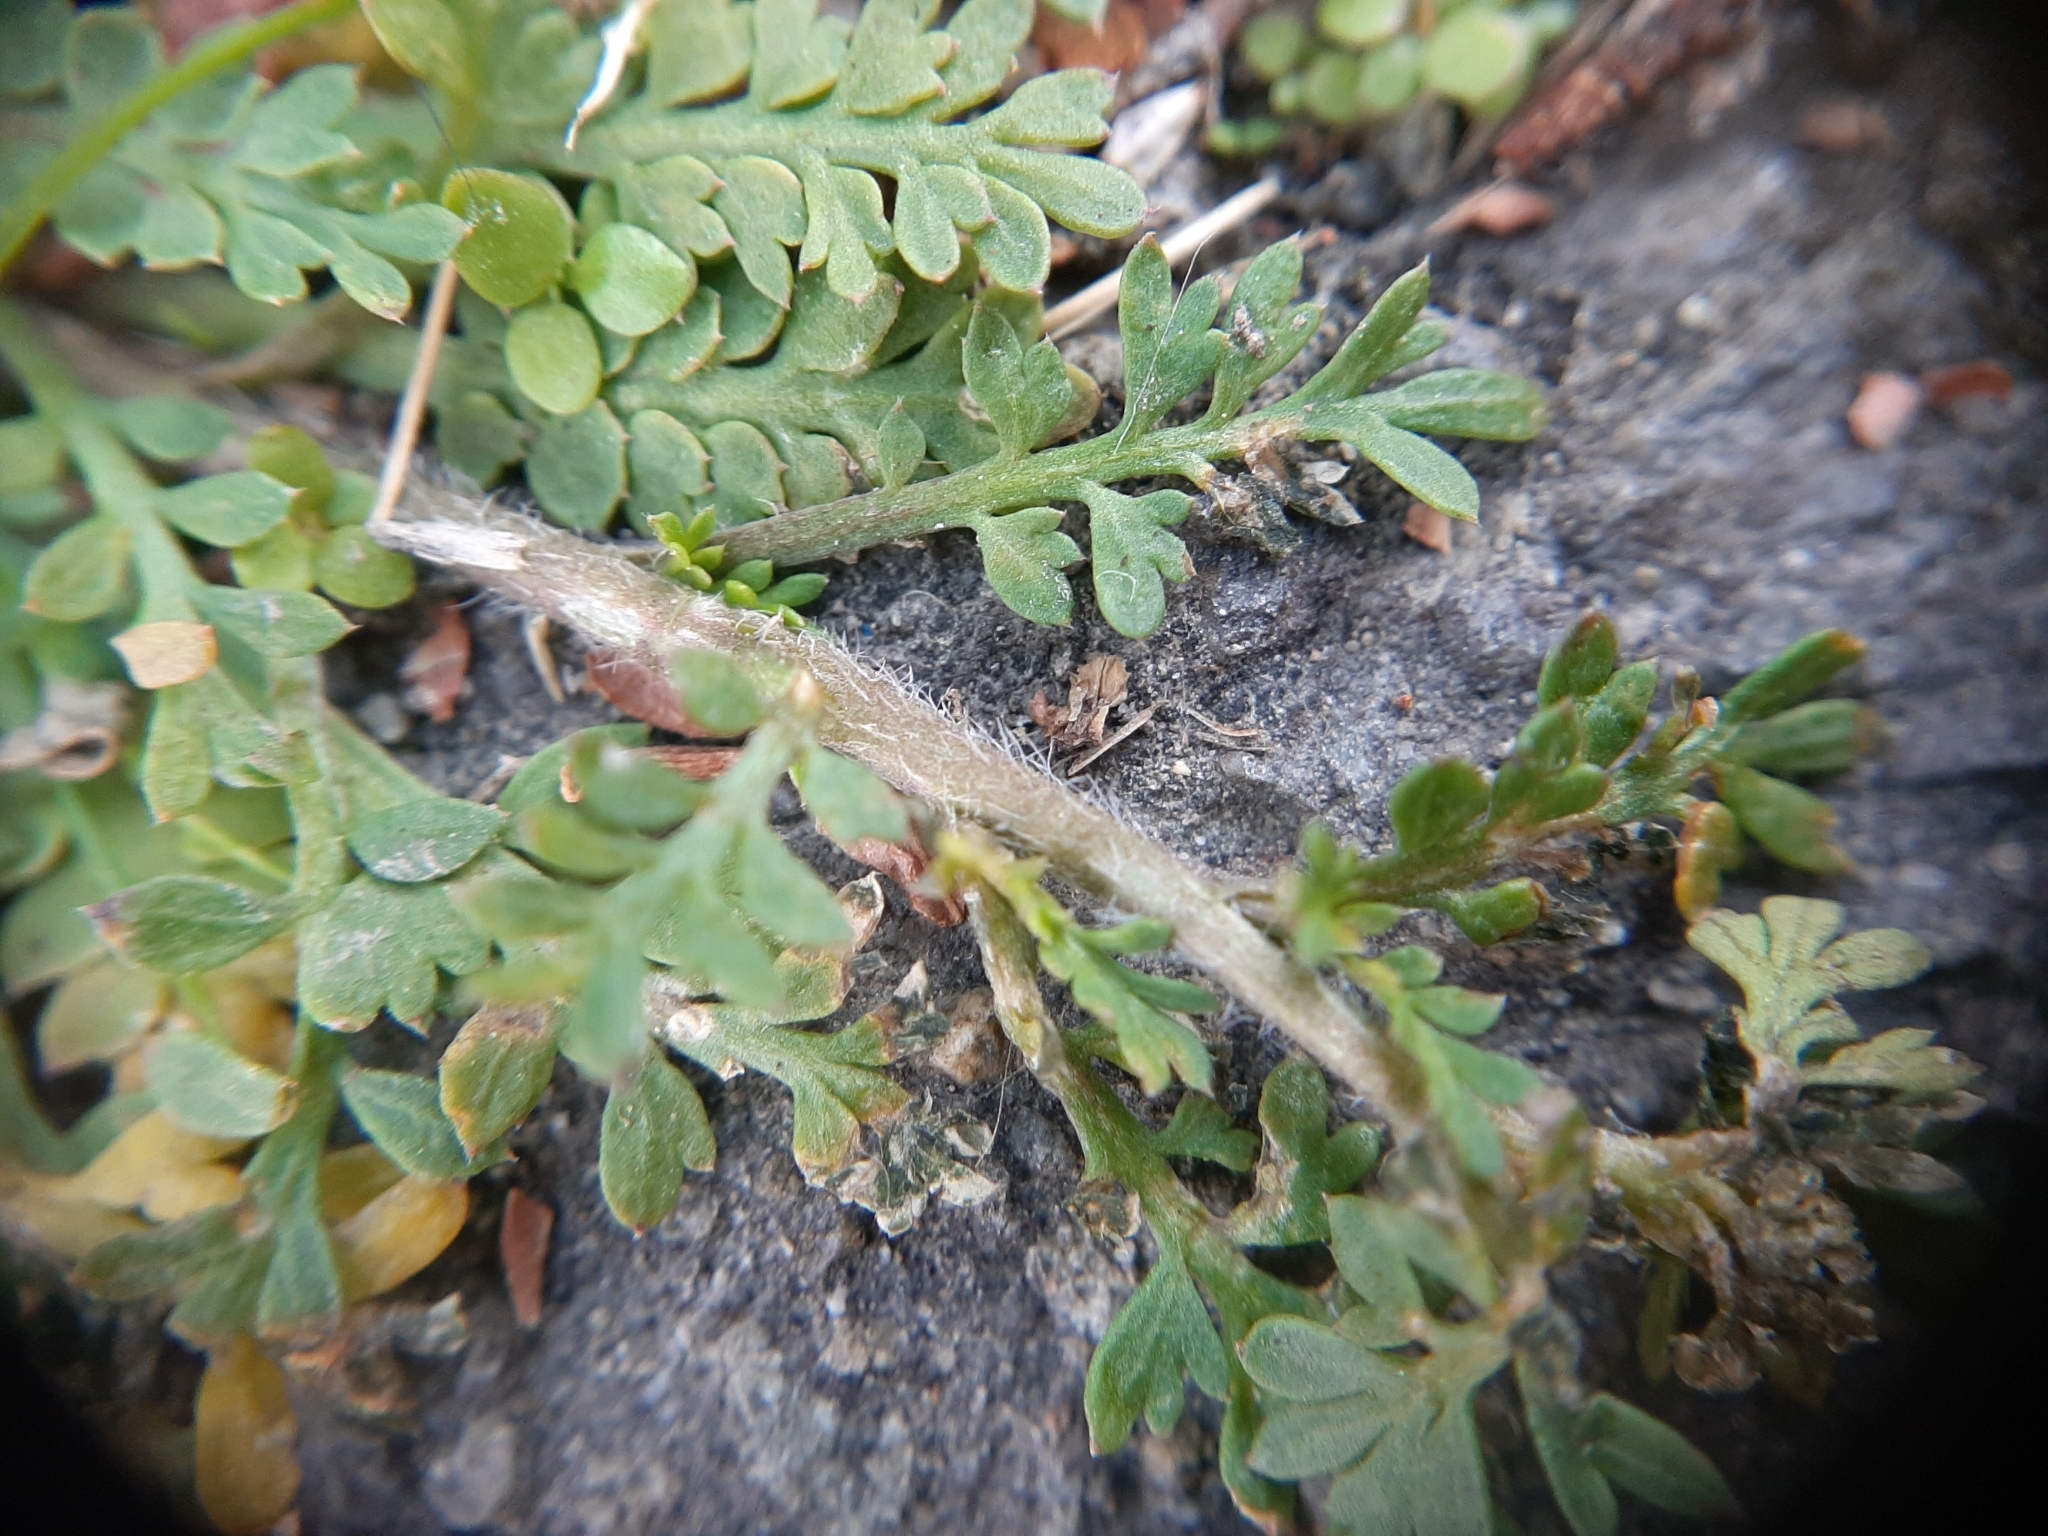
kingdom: Plantae
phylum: Tracheophyta
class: Magnoliopsida
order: Brassicales
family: Brassicaceae
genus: Lepidium
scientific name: Lepidium didymum
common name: Lesser swinecress
